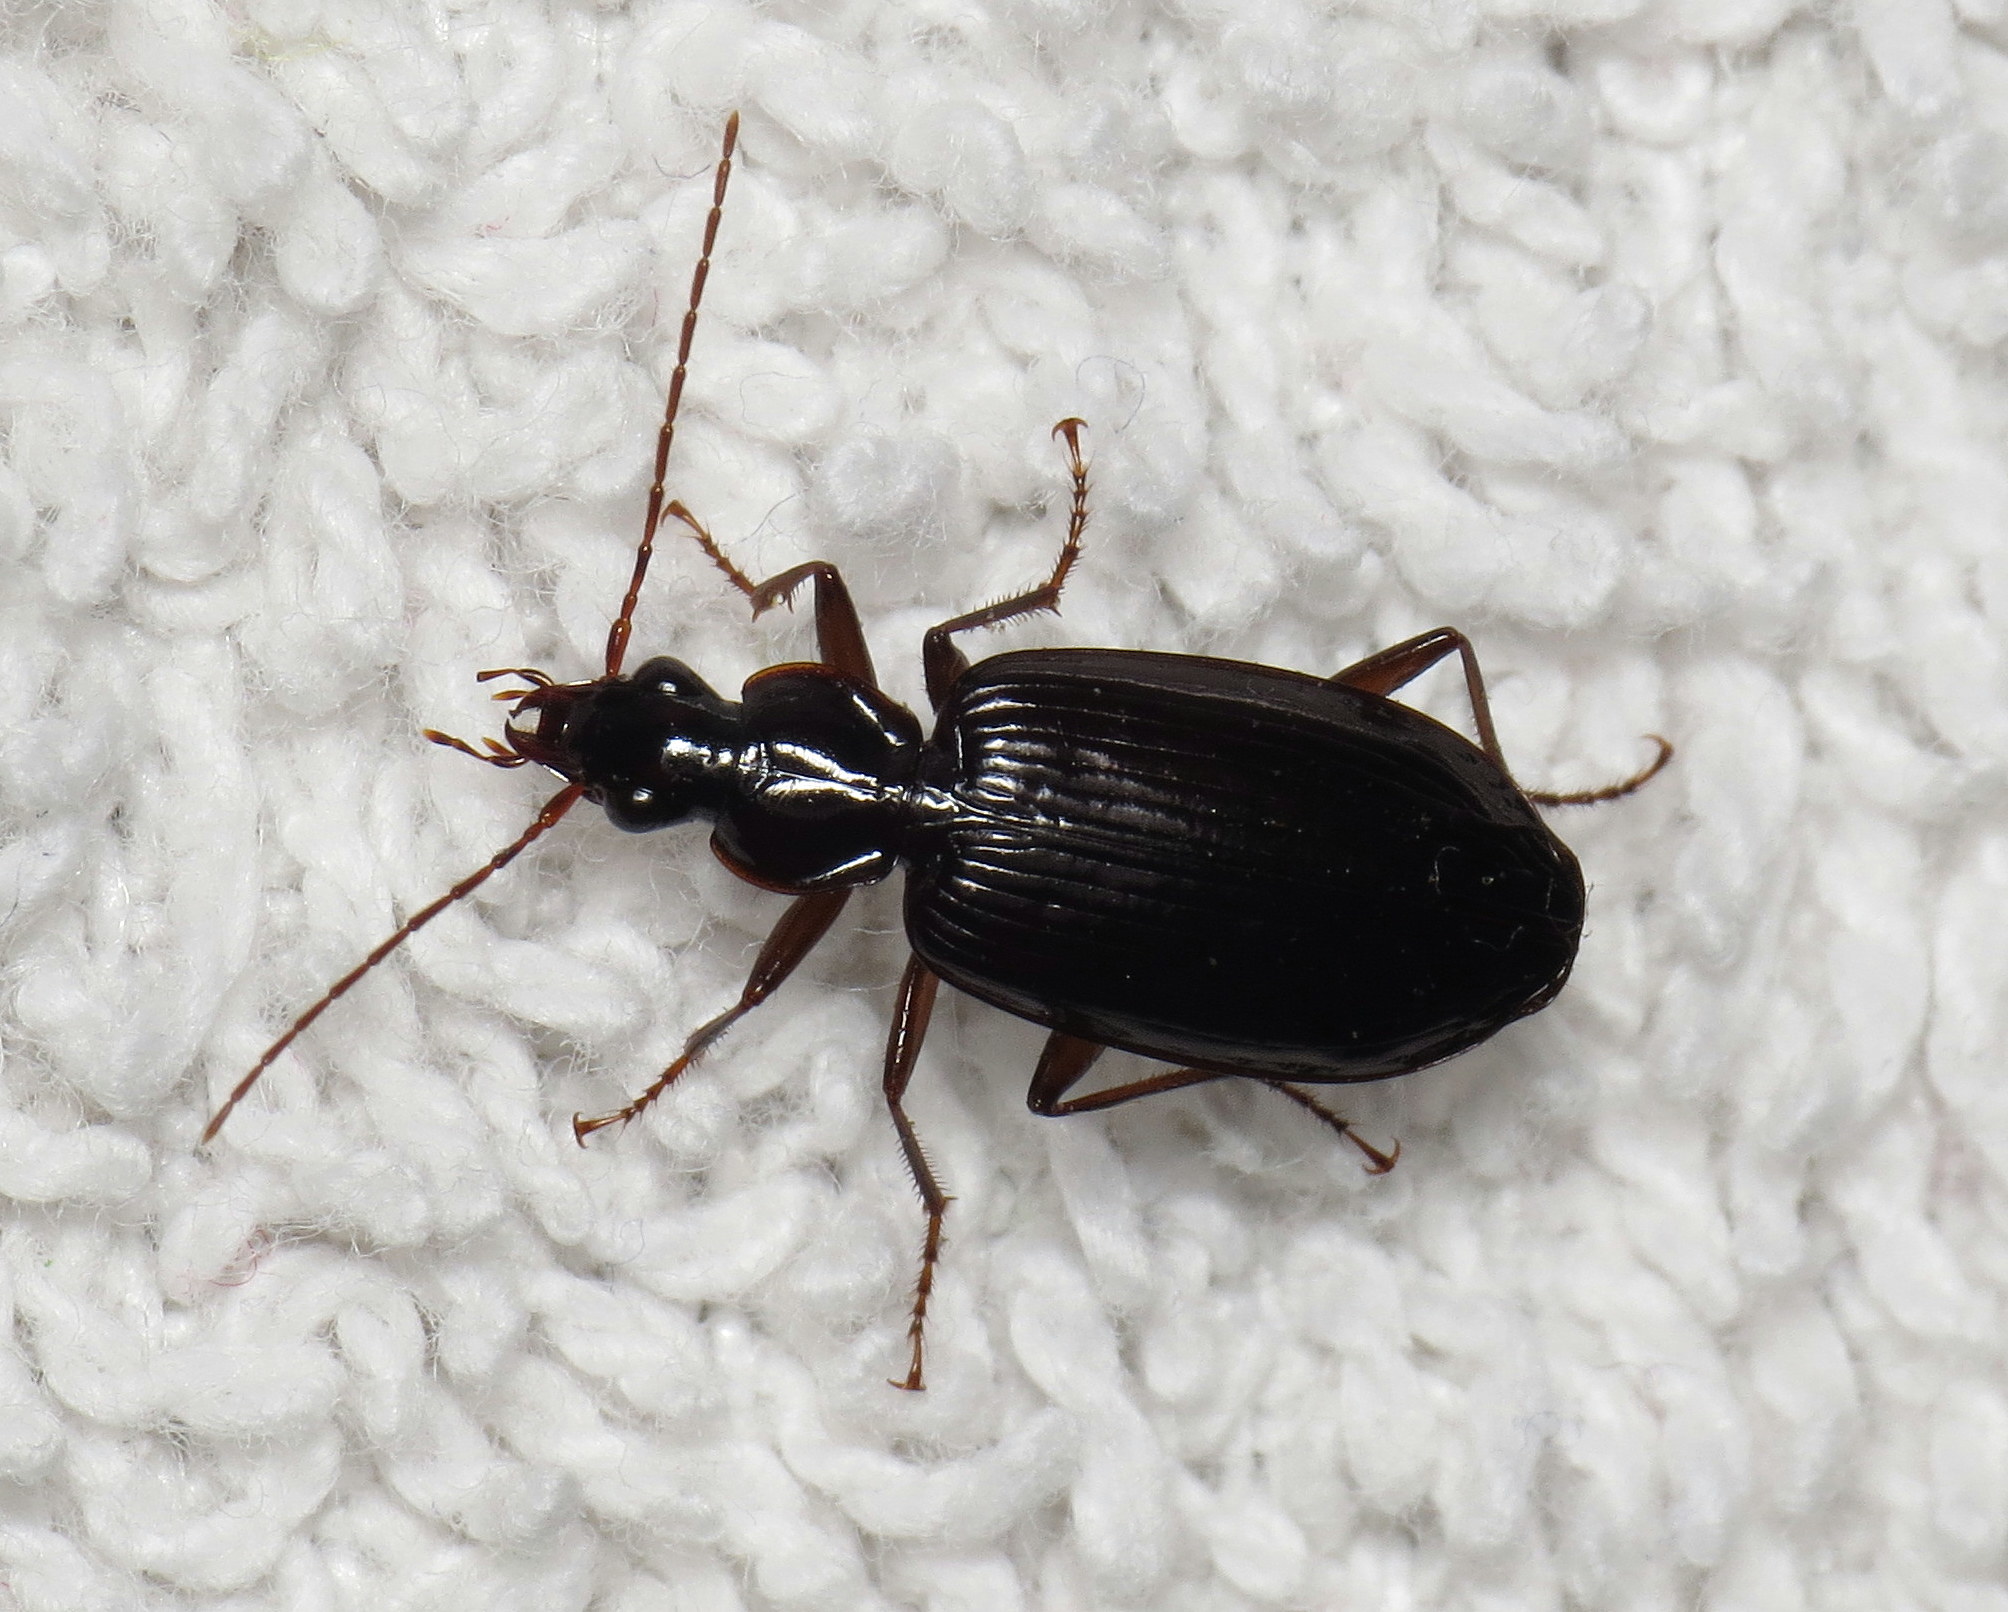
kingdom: Animalia
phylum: Arthropoda
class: Insecta
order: Coleoptera
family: Carabidae
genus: Platynus
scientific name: Platynus cincticollis
